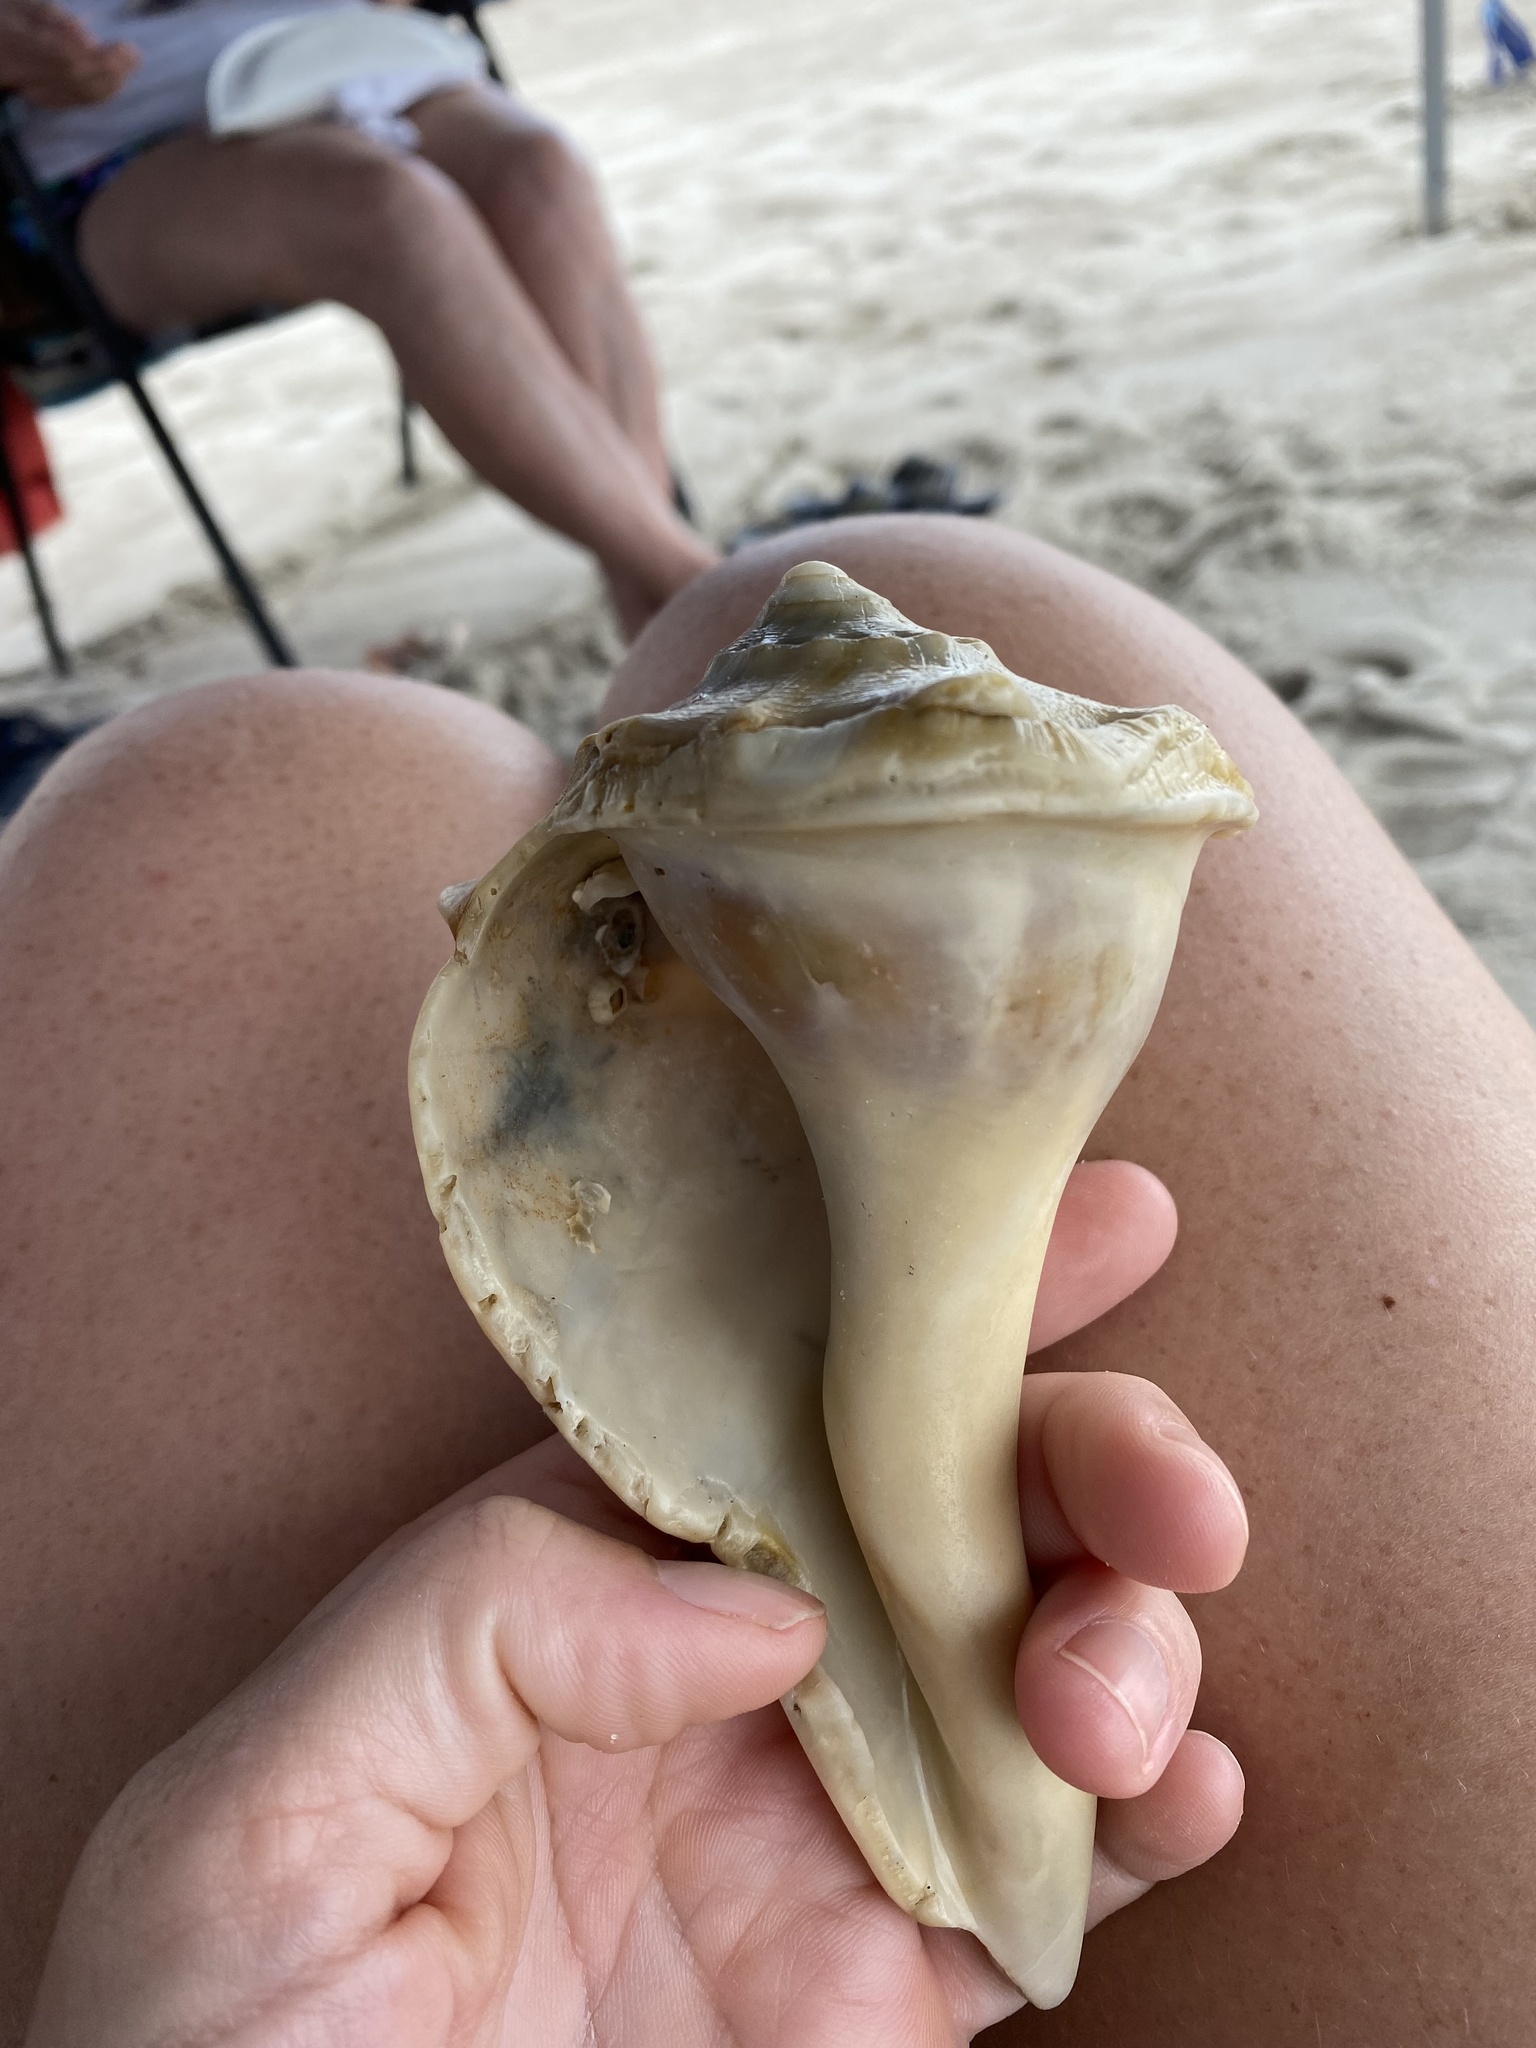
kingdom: Animalia
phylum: Mollusca
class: Gastropoda
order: Neogastropoda
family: Busyconidae
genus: Sinistrofulgur
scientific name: Sinistrofulgur sinistrum
